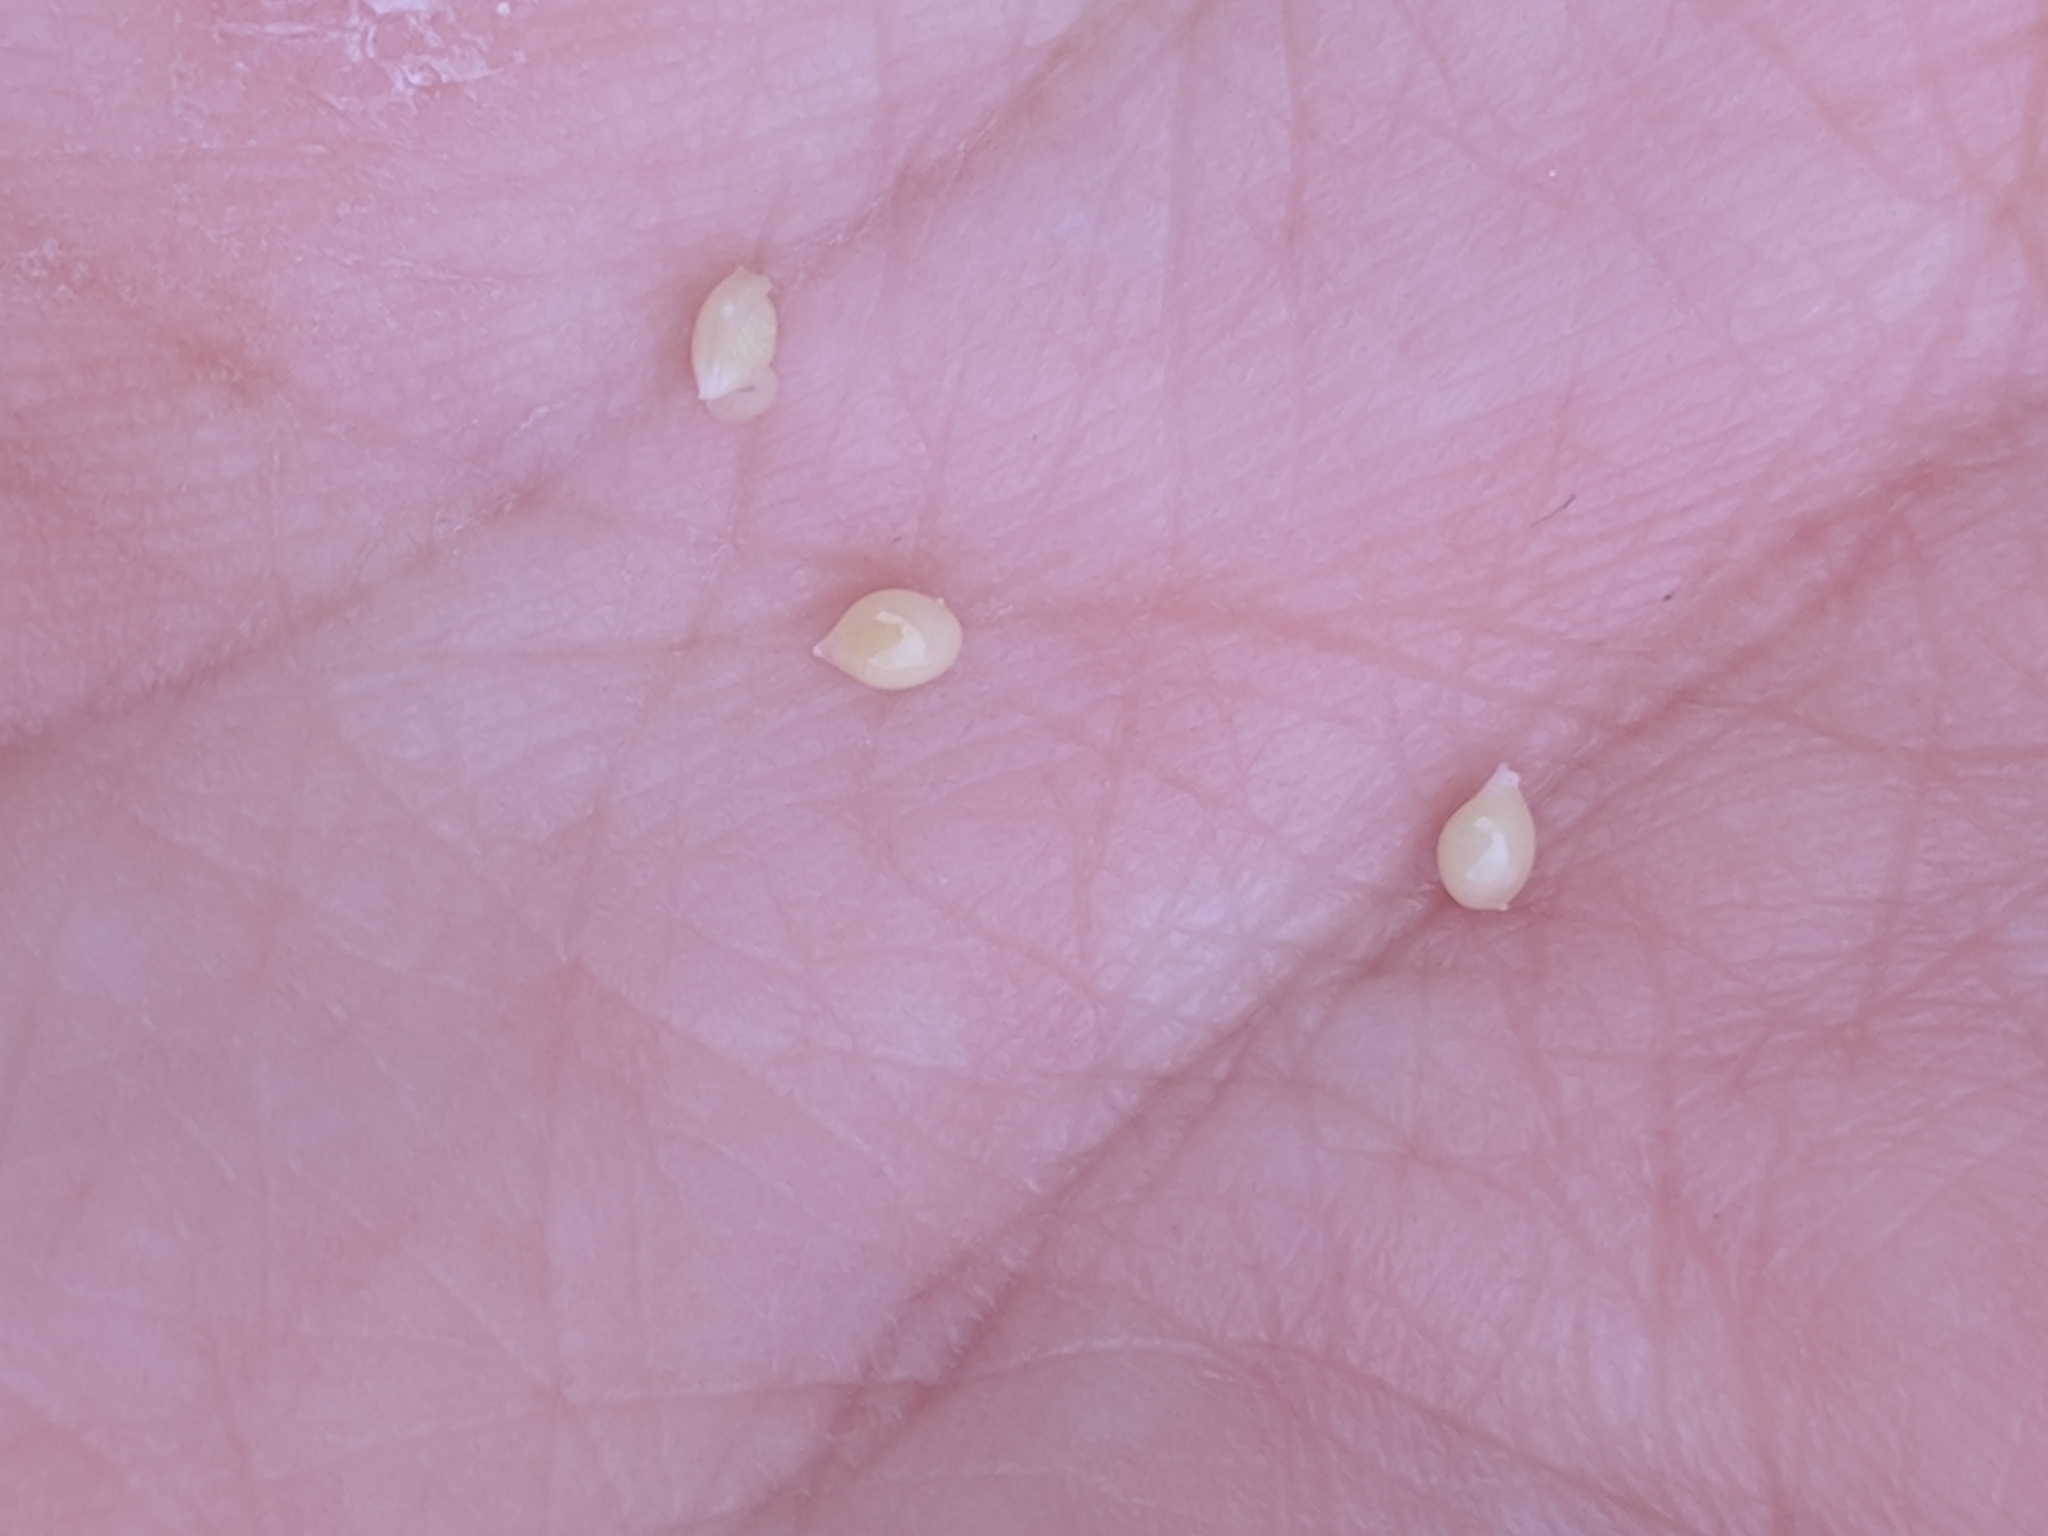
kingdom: Plantae
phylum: Tracheophyta
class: Magnoliopsida
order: Oxalidales
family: Oxalidaceae
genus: Oxalis
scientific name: Oxalis drummondii
